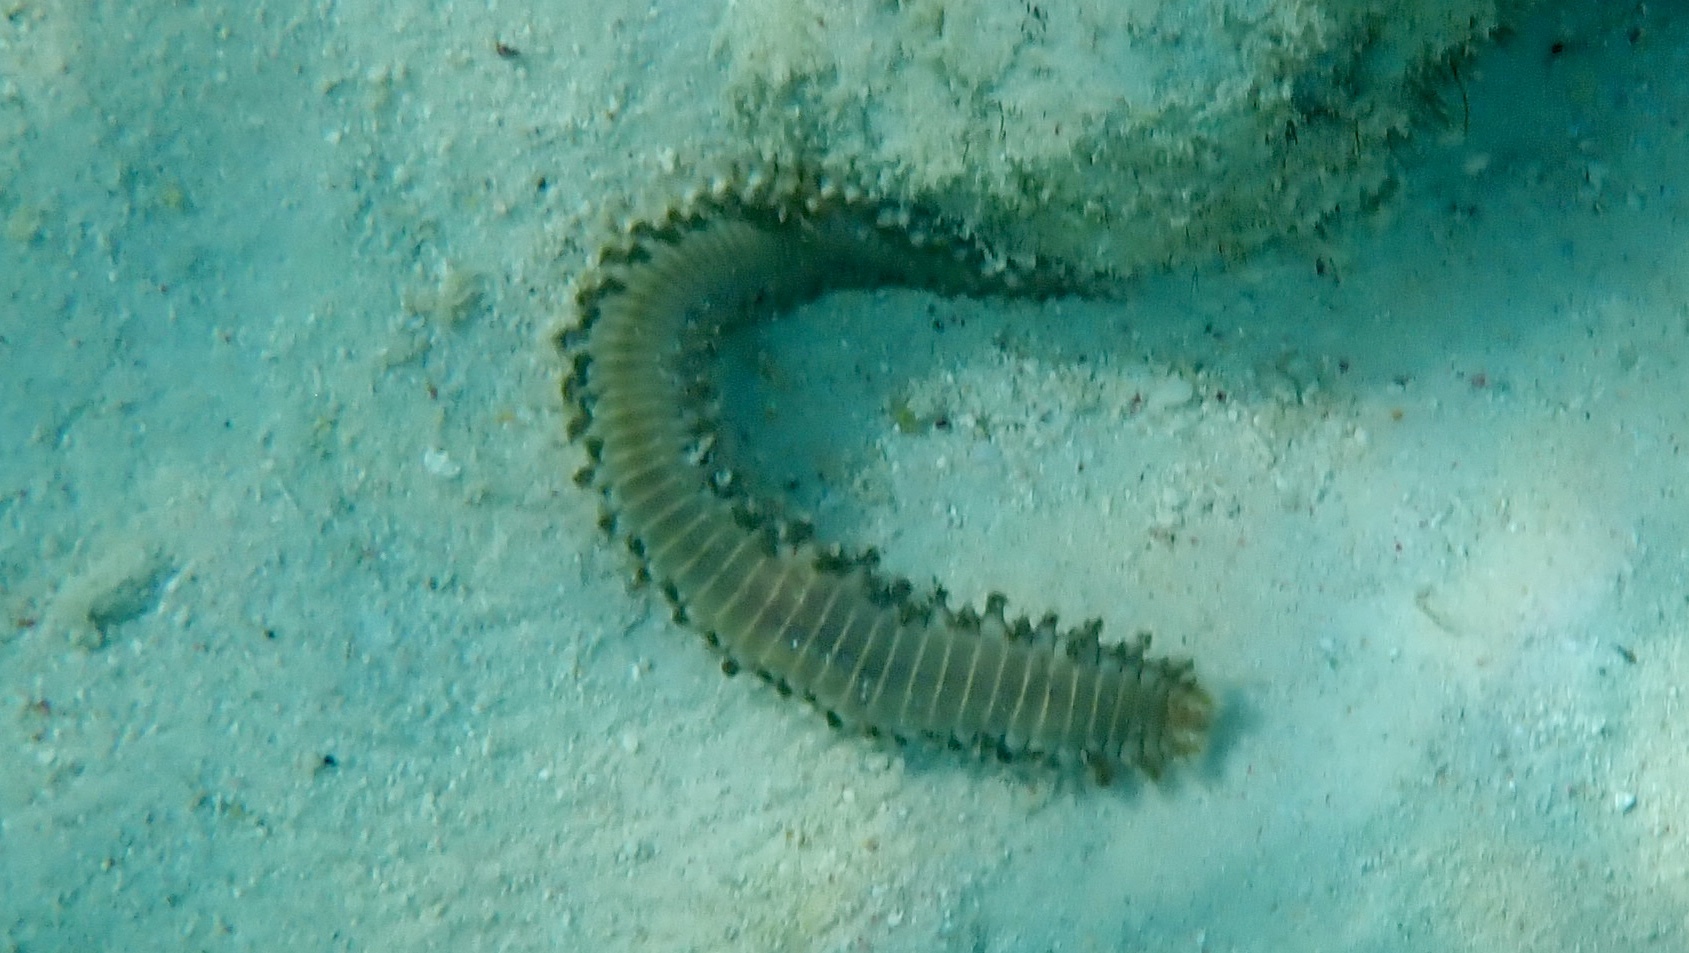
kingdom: Animalia
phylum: Annelida
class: Polychaeta
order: Amphinomida
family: Amphinomidae
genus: Hermodice
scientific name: Hermodice carunculata
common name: Bearded fireworm
